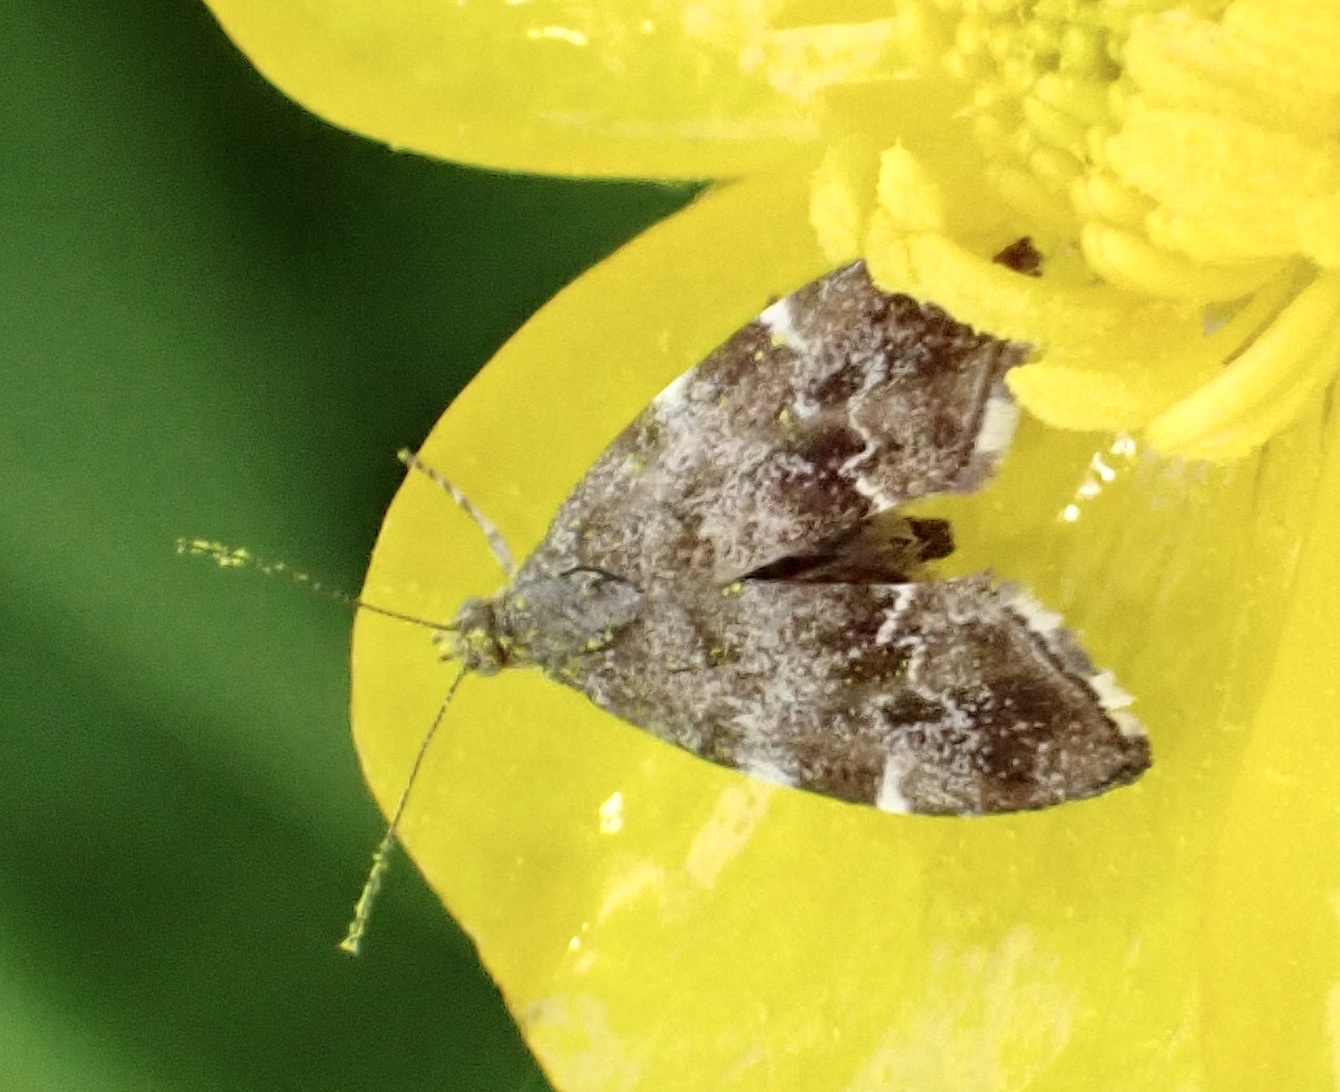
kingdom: Animalia
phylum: Arthropoda
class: Insecta
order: Lepidoptera
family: Choreutidae
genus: Anthophila
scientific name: Anthophila fabriciana
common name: Nettle-tap
